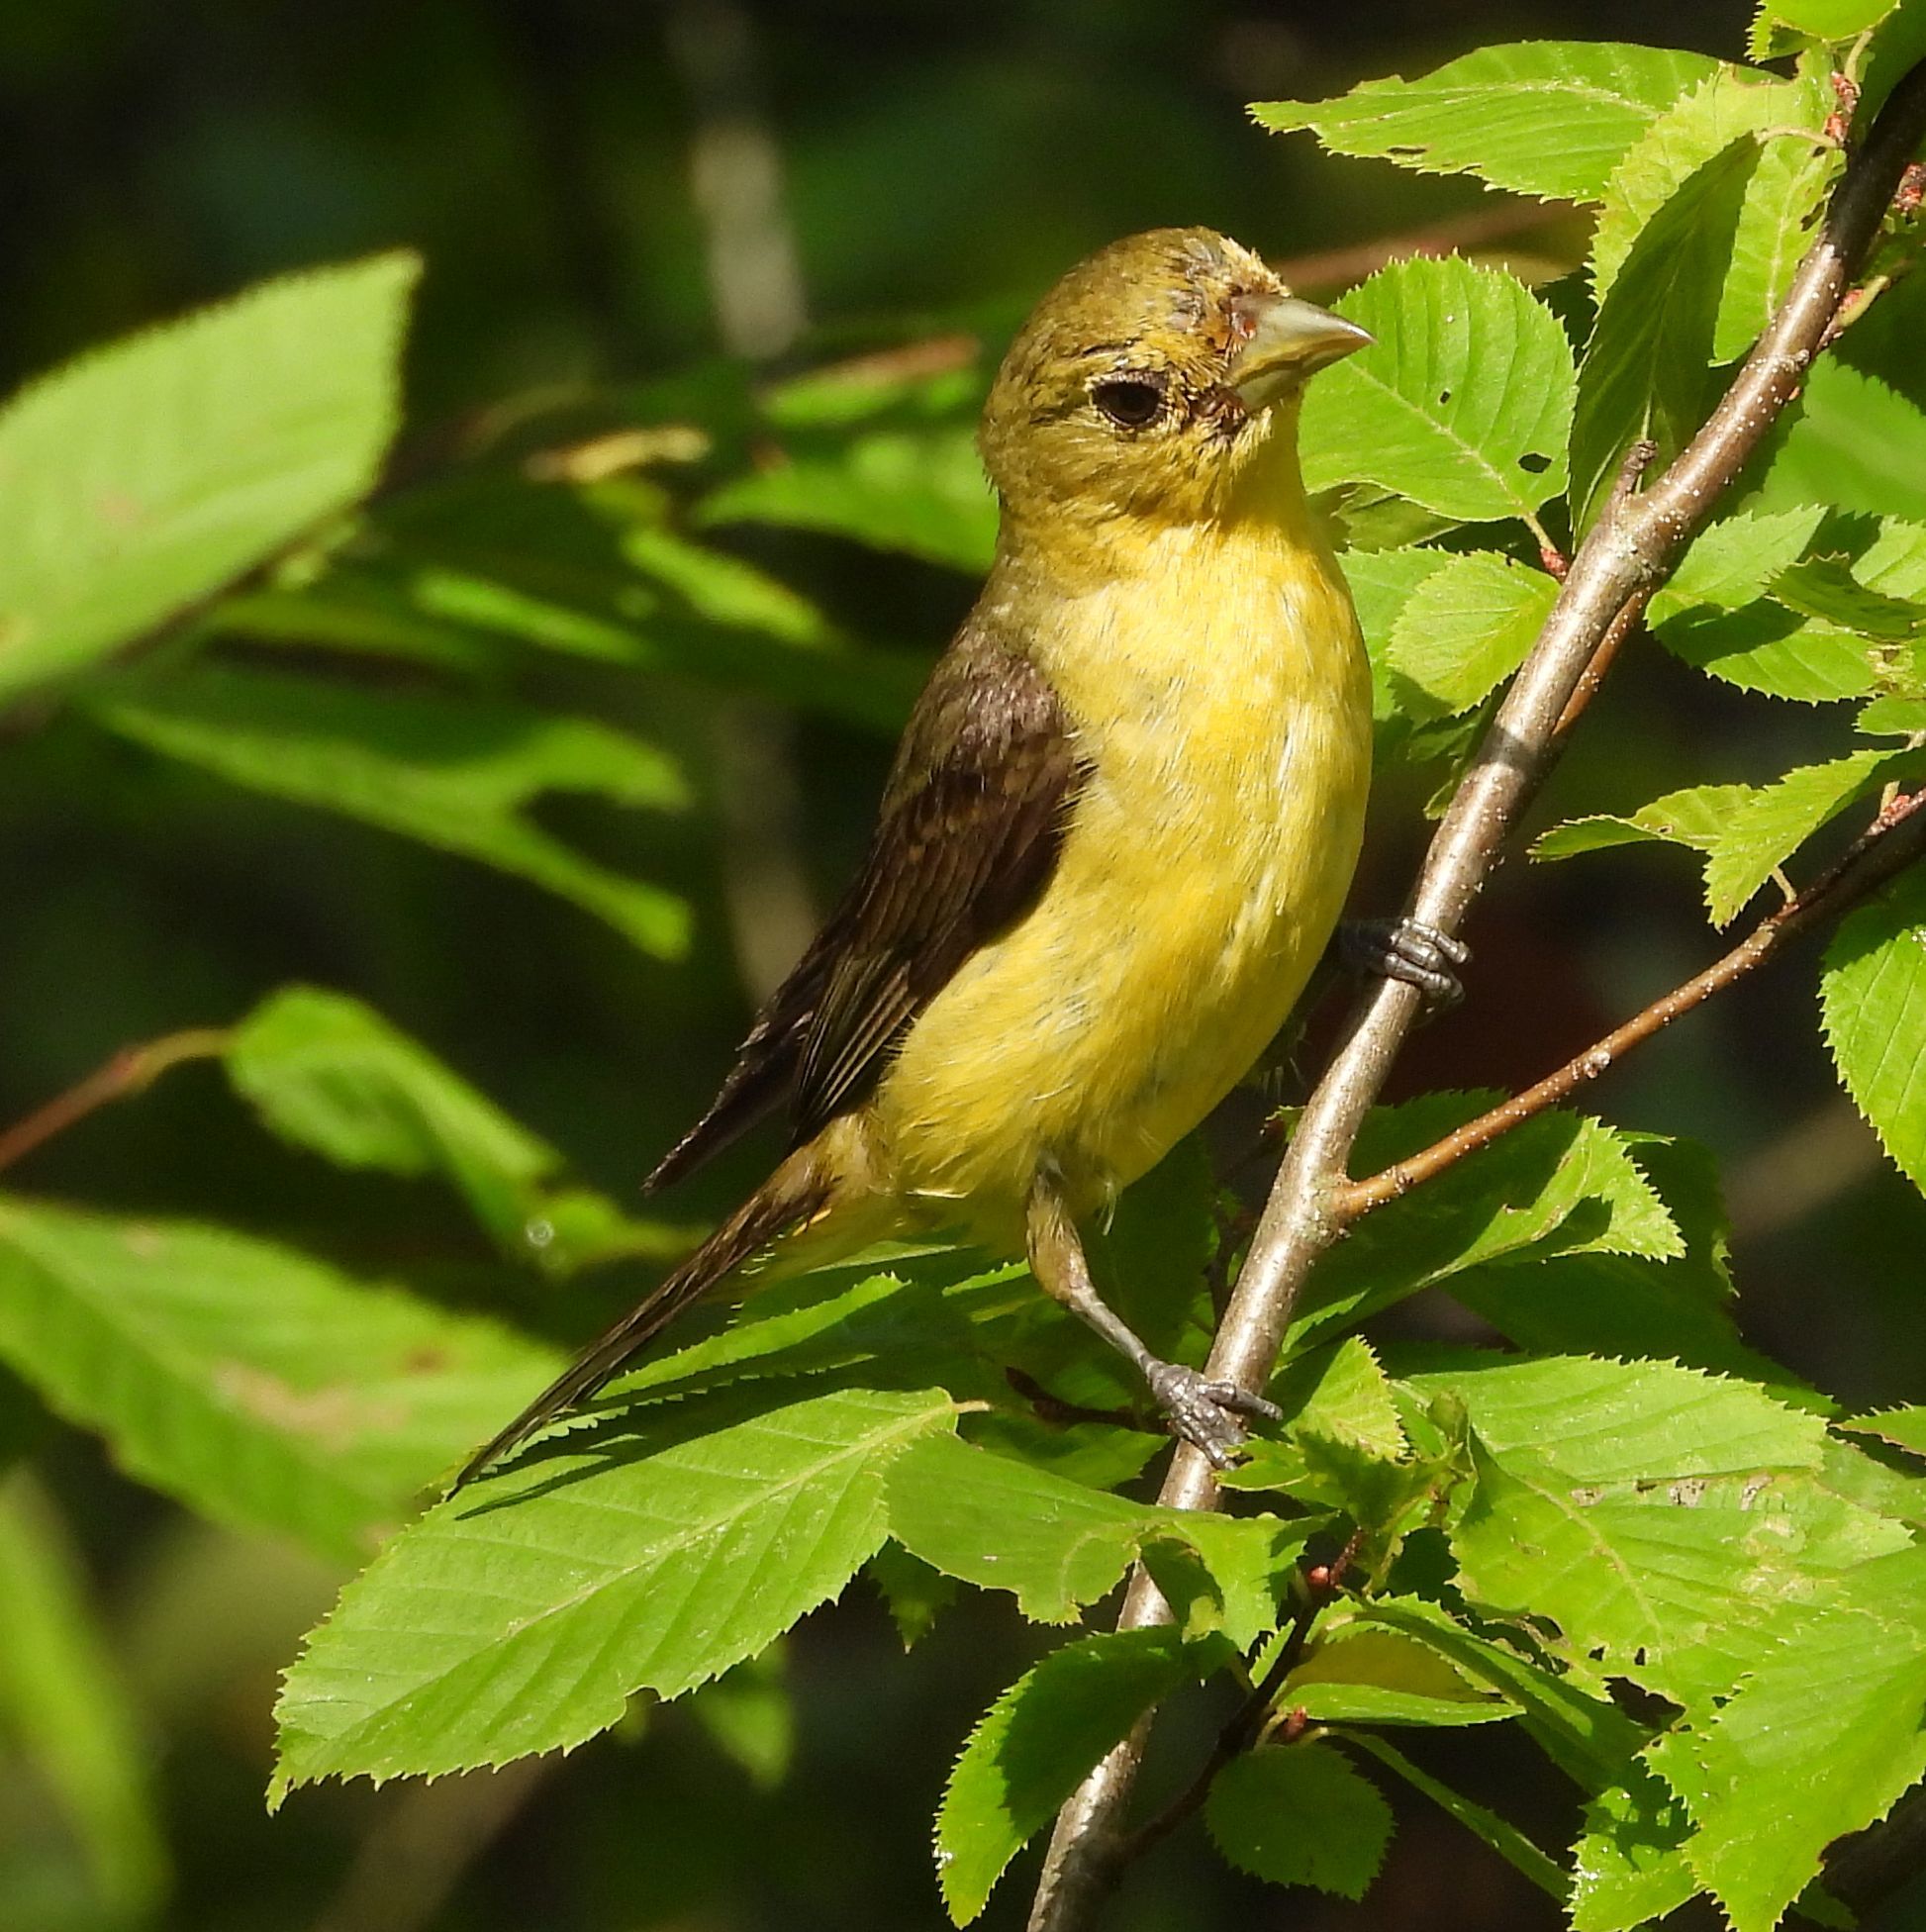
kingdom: Animalia
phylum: Chordata
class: Aves
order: Passeriformes
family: Cardinalidae
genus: Piranga
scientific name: Piranga olivacea
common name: Scarlet tanager
